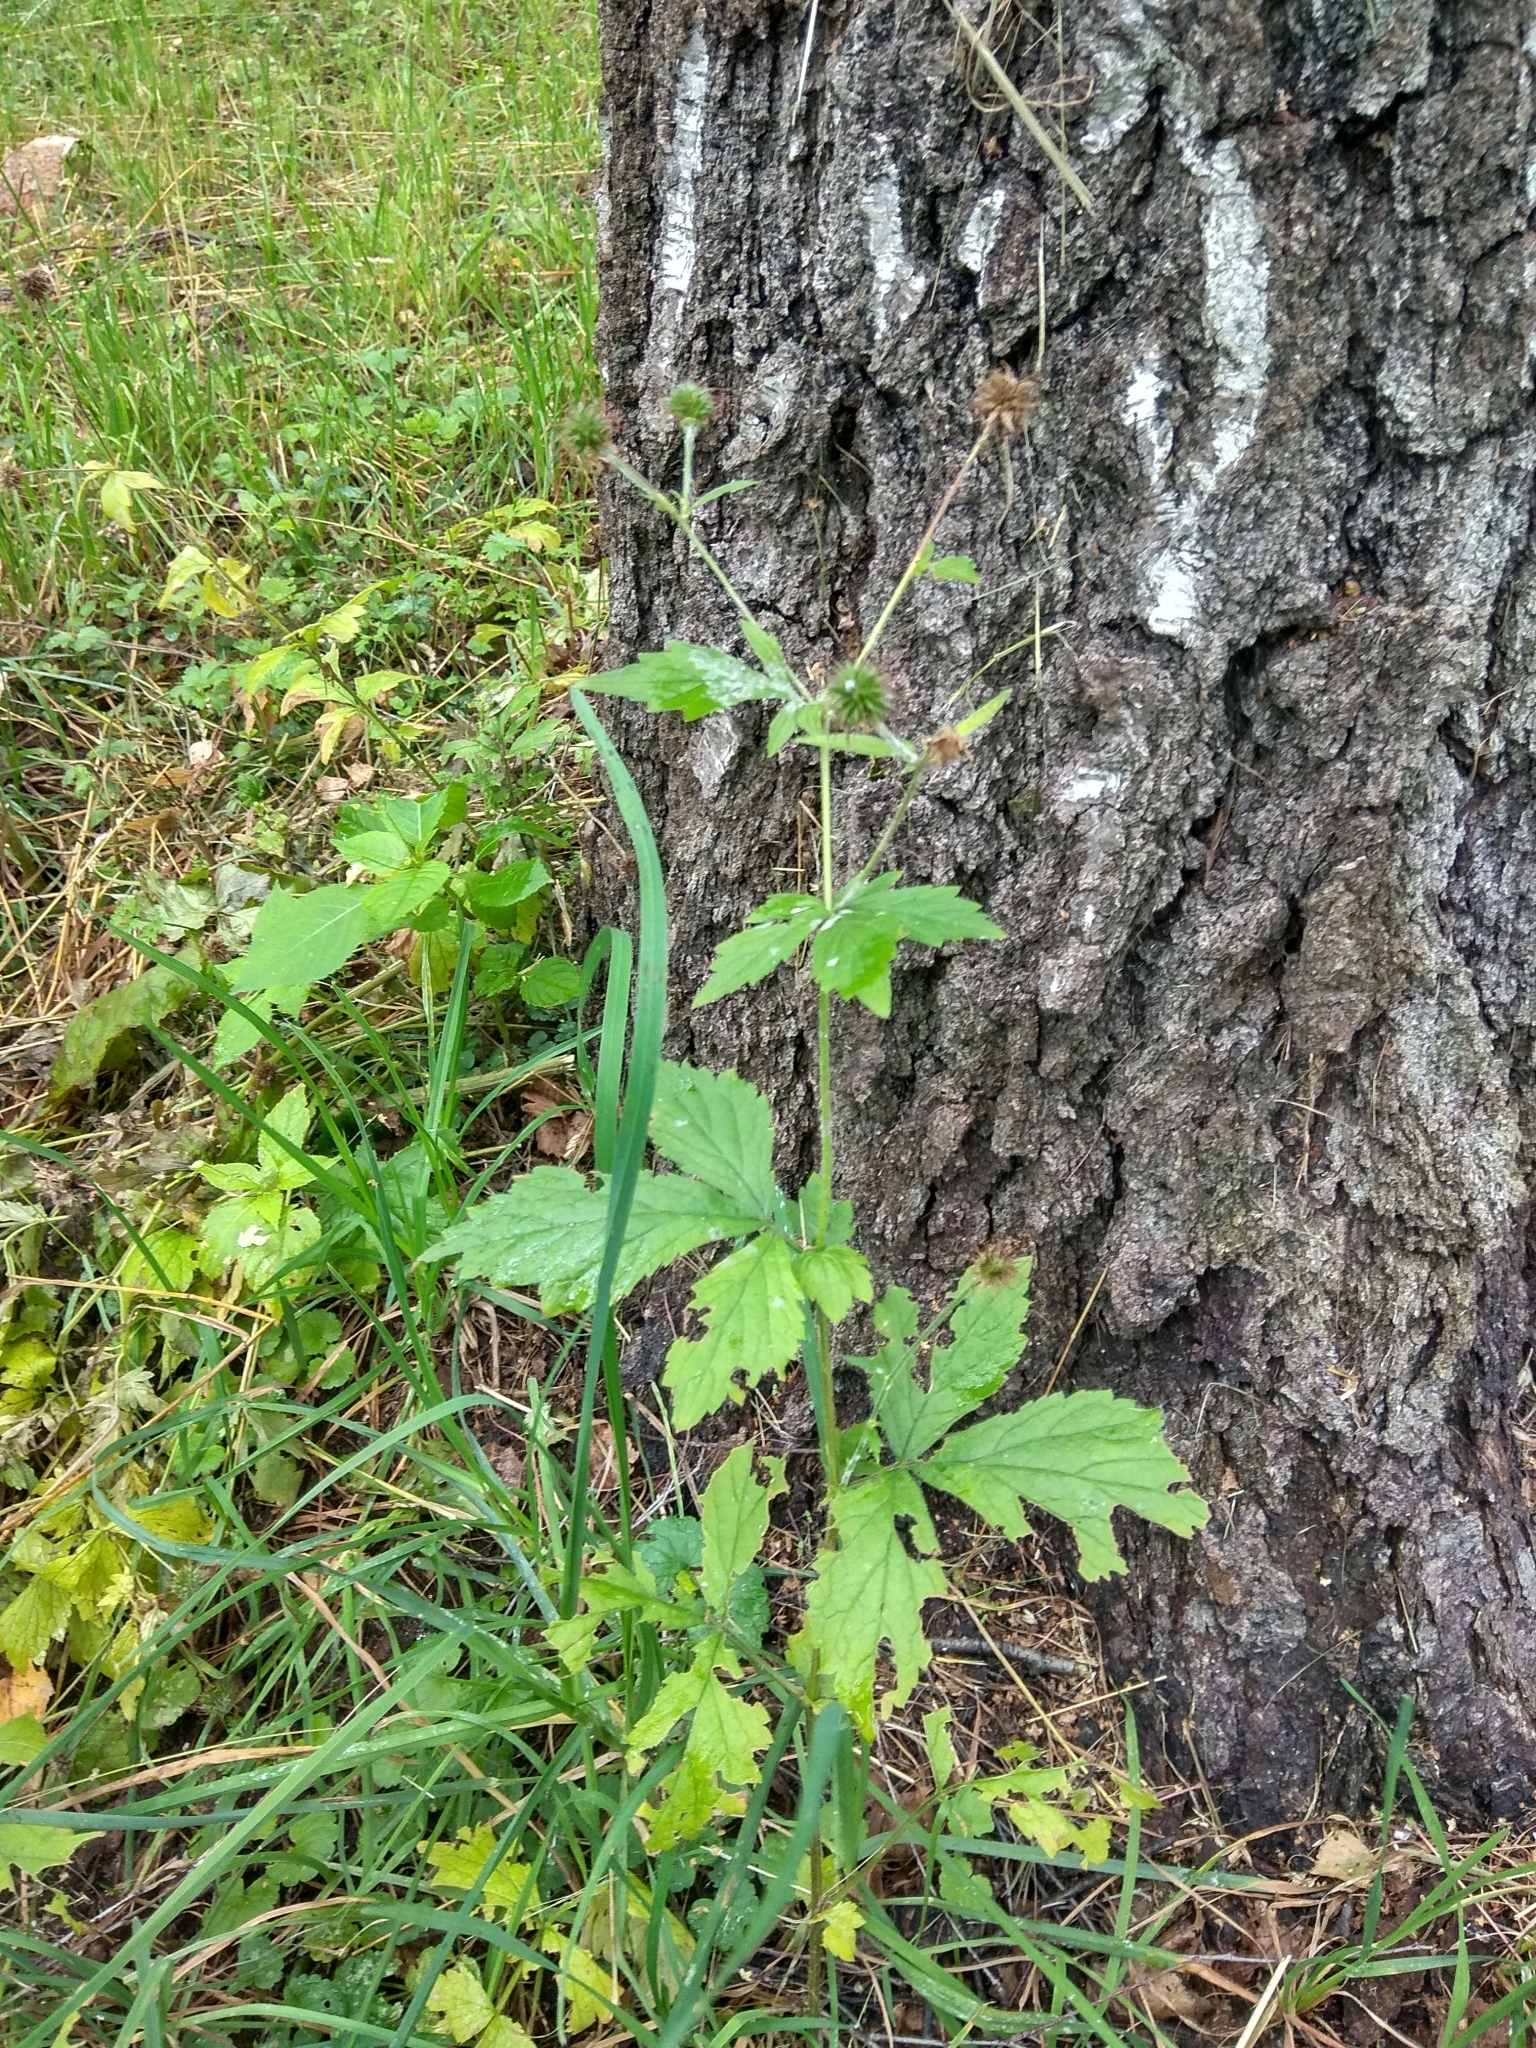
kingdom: Plantae
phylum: Tracheophyta
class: Magnoliopsida
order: Rosales
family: Rosaceae
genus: Geum
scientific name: Geum urbanum
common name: Wood avens
